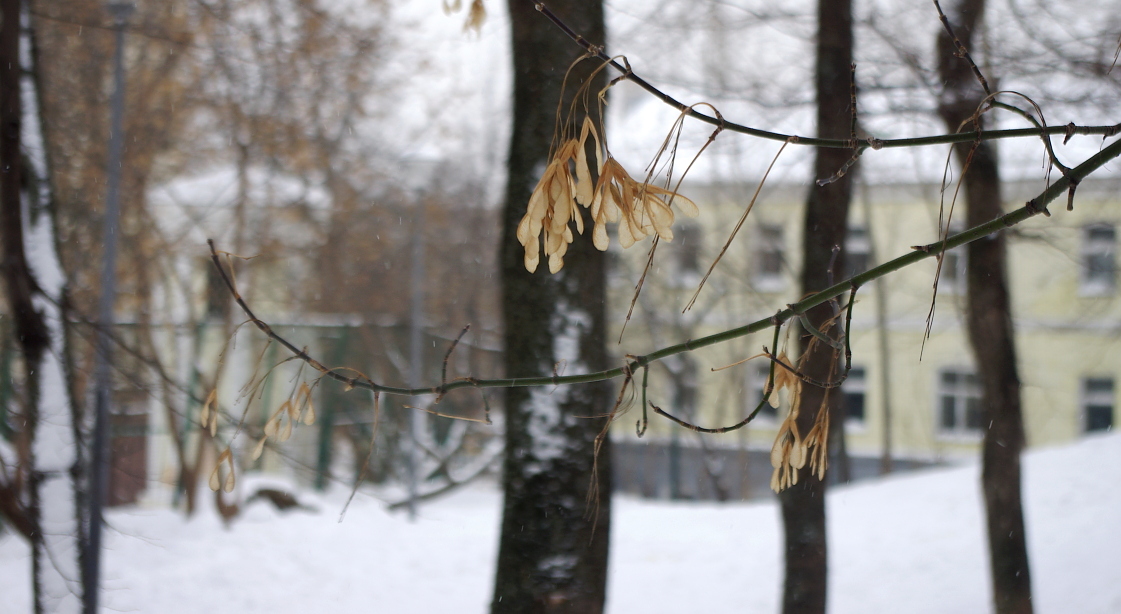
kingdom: Plantae
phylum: Tracheophyta
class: Magnoliopsida
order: Sapindales
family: Sapindaceae
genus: Acer
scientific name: Acer negundo
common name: Ashleaf maple
